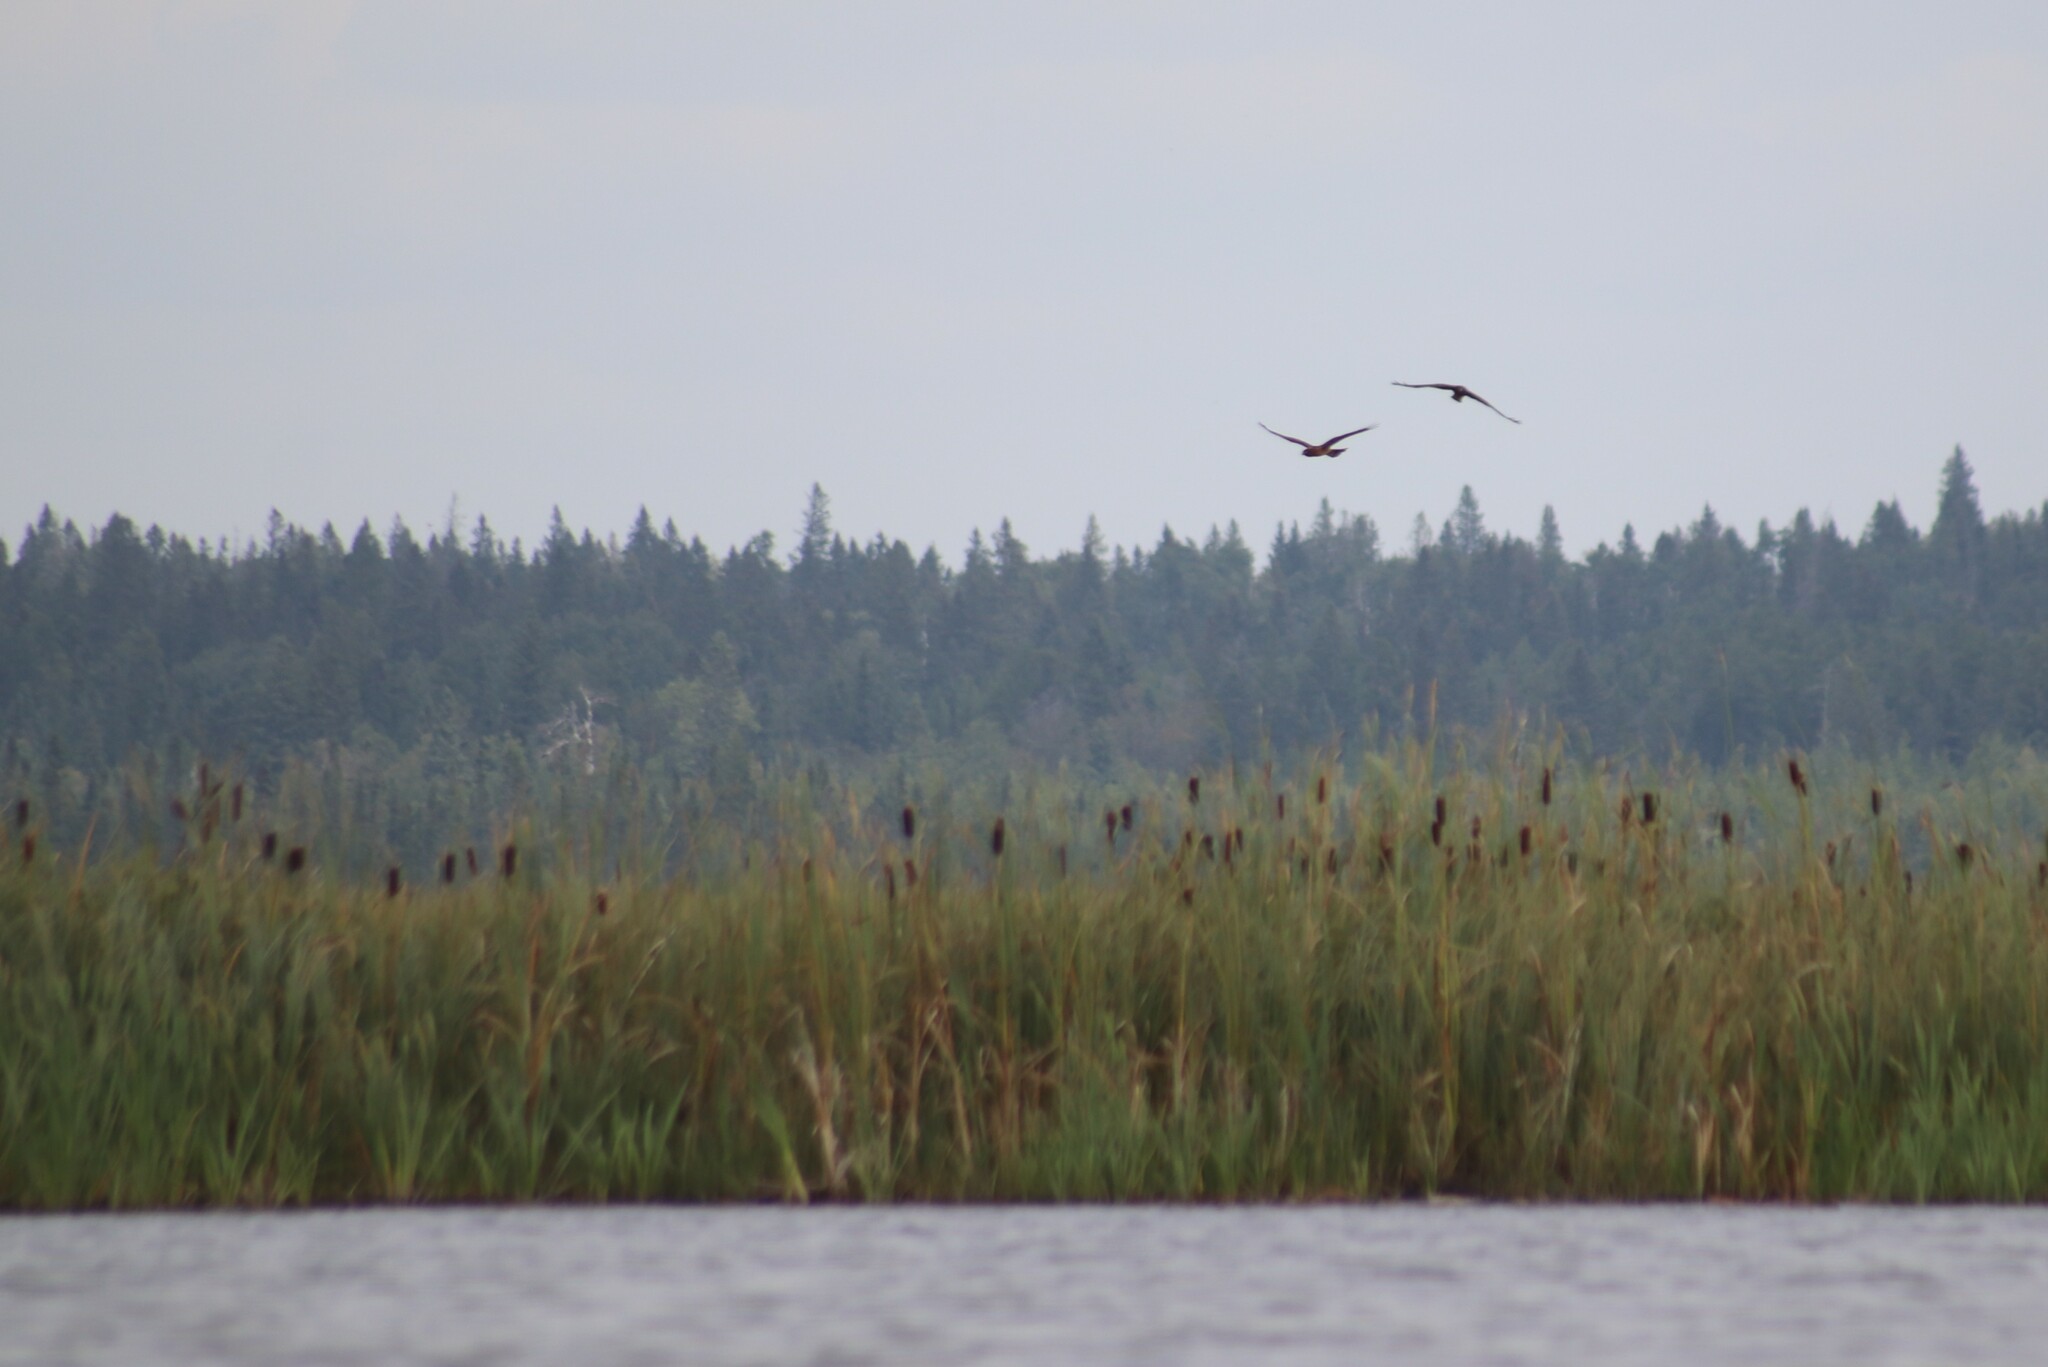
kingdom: Animalia
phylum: Chordata
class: Aves
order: Accipitriformes
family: Accipitridae
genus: Circus
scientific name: Circus cyaneus
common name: Hen harrier
